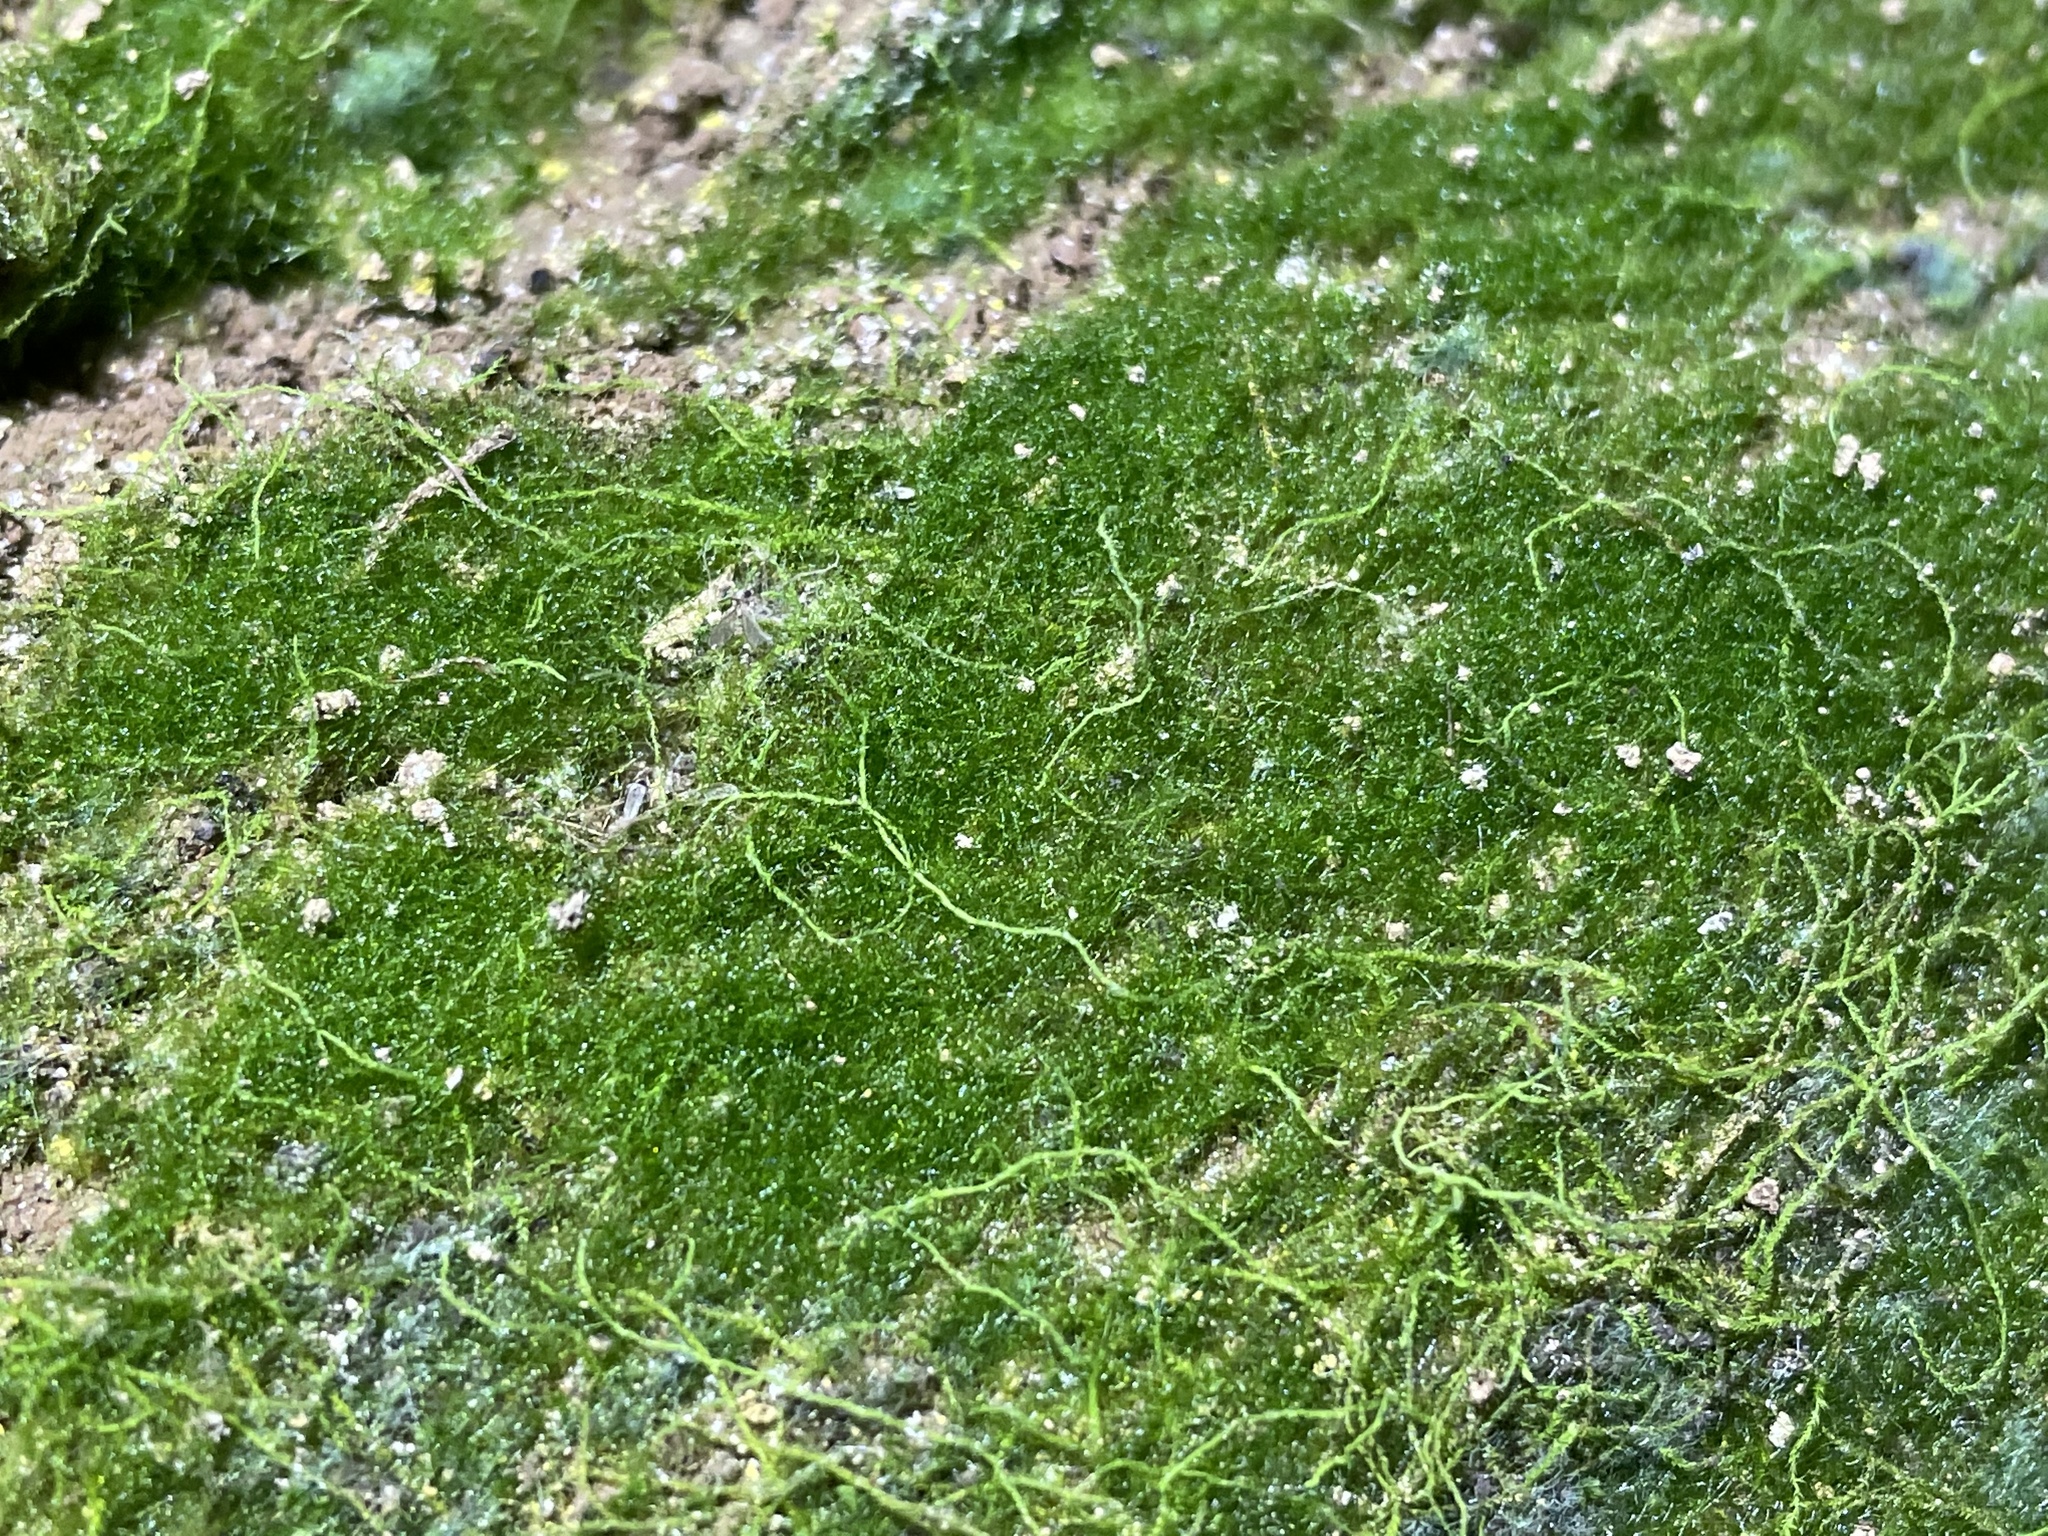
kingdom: Plantae
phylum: Tracheophyta
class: Polypodiopsida
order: Hymenophyllales
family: Hymenophyllaceae
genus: Crepidomanes
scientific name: Crepidomanes intricatum
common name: Weft fern
